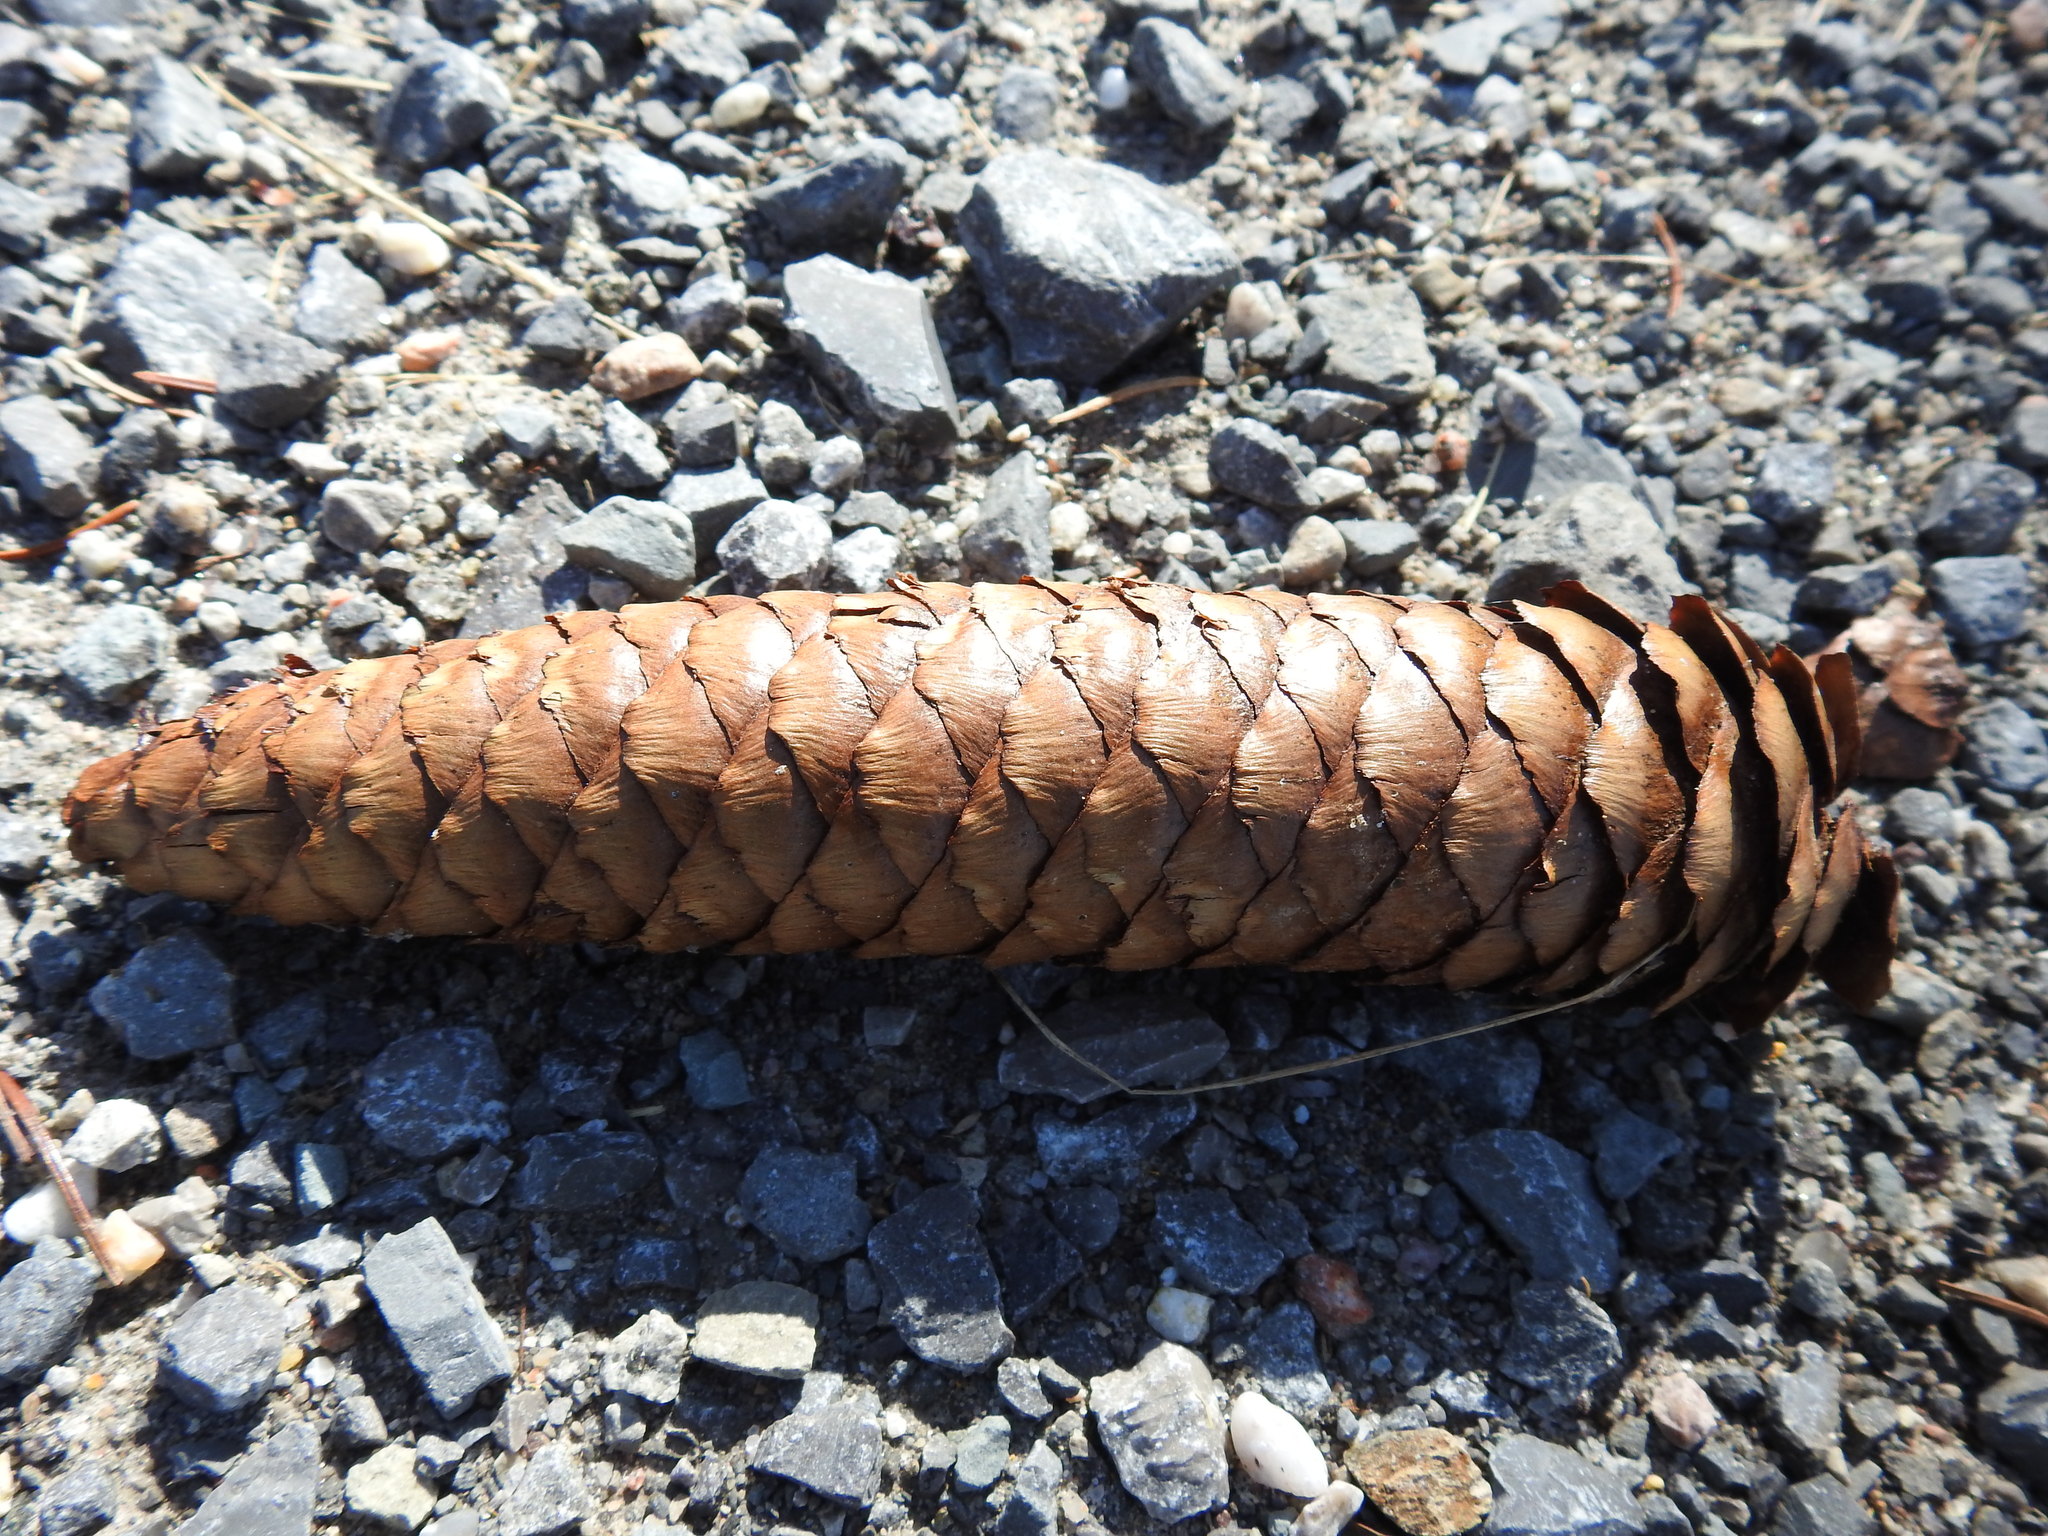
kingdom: Plantae
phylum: Tracheophyta
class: Pinopsida
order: Pinales
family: Pinaceae
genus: Picea
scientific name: Picea abies
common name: Norway spruce
